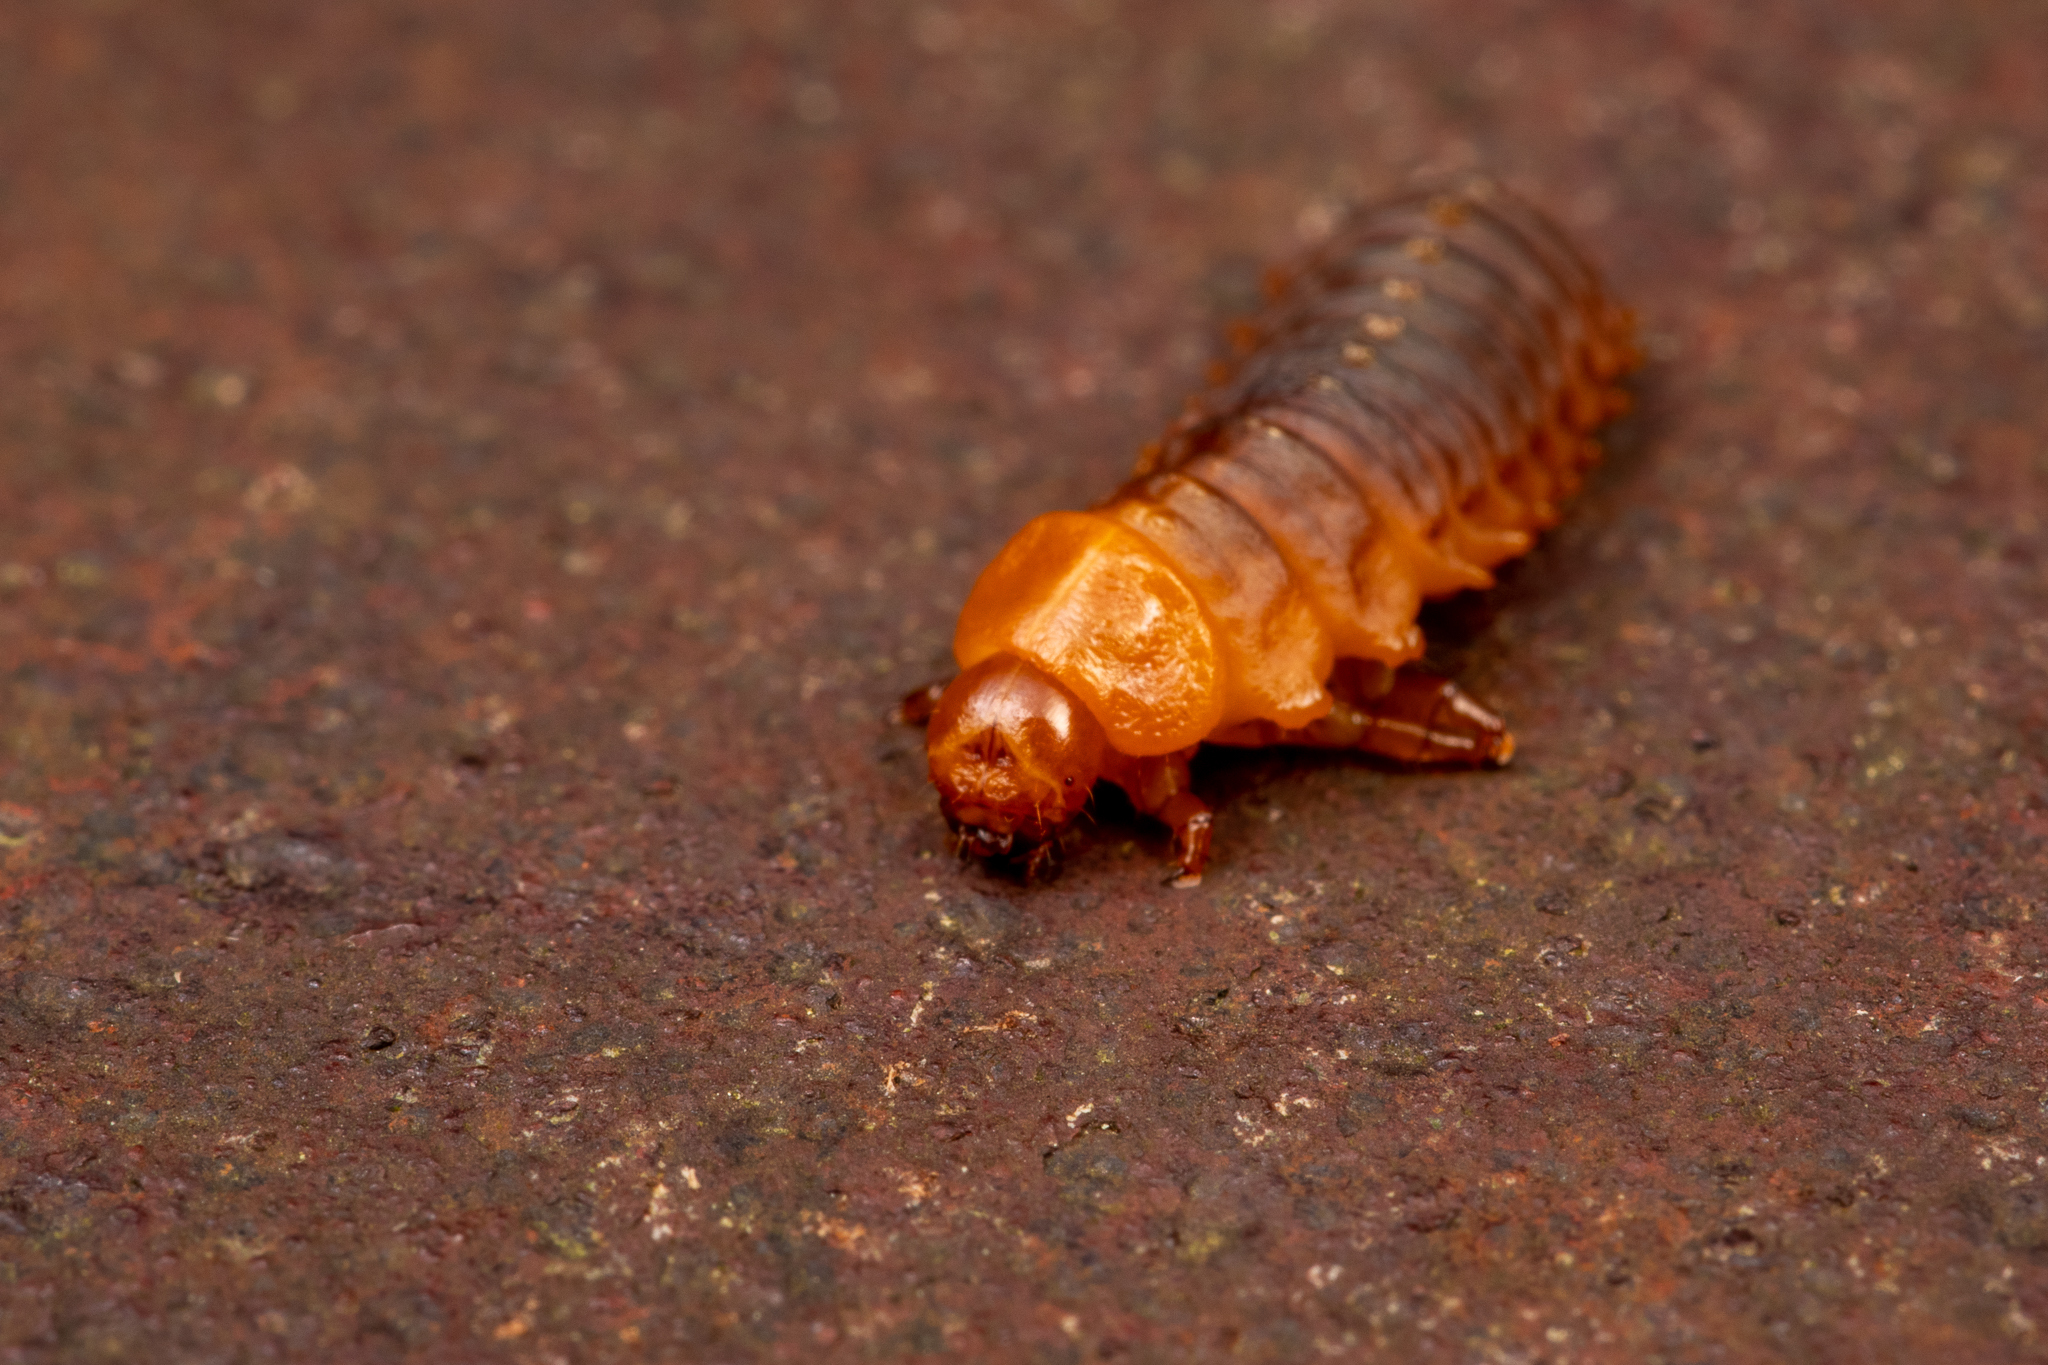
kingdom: Animalia
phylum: Arthropoda
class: Insecta
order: Coleoptera
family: Chrysomelidae
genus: Monocesta
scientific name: Monocesta coryli
